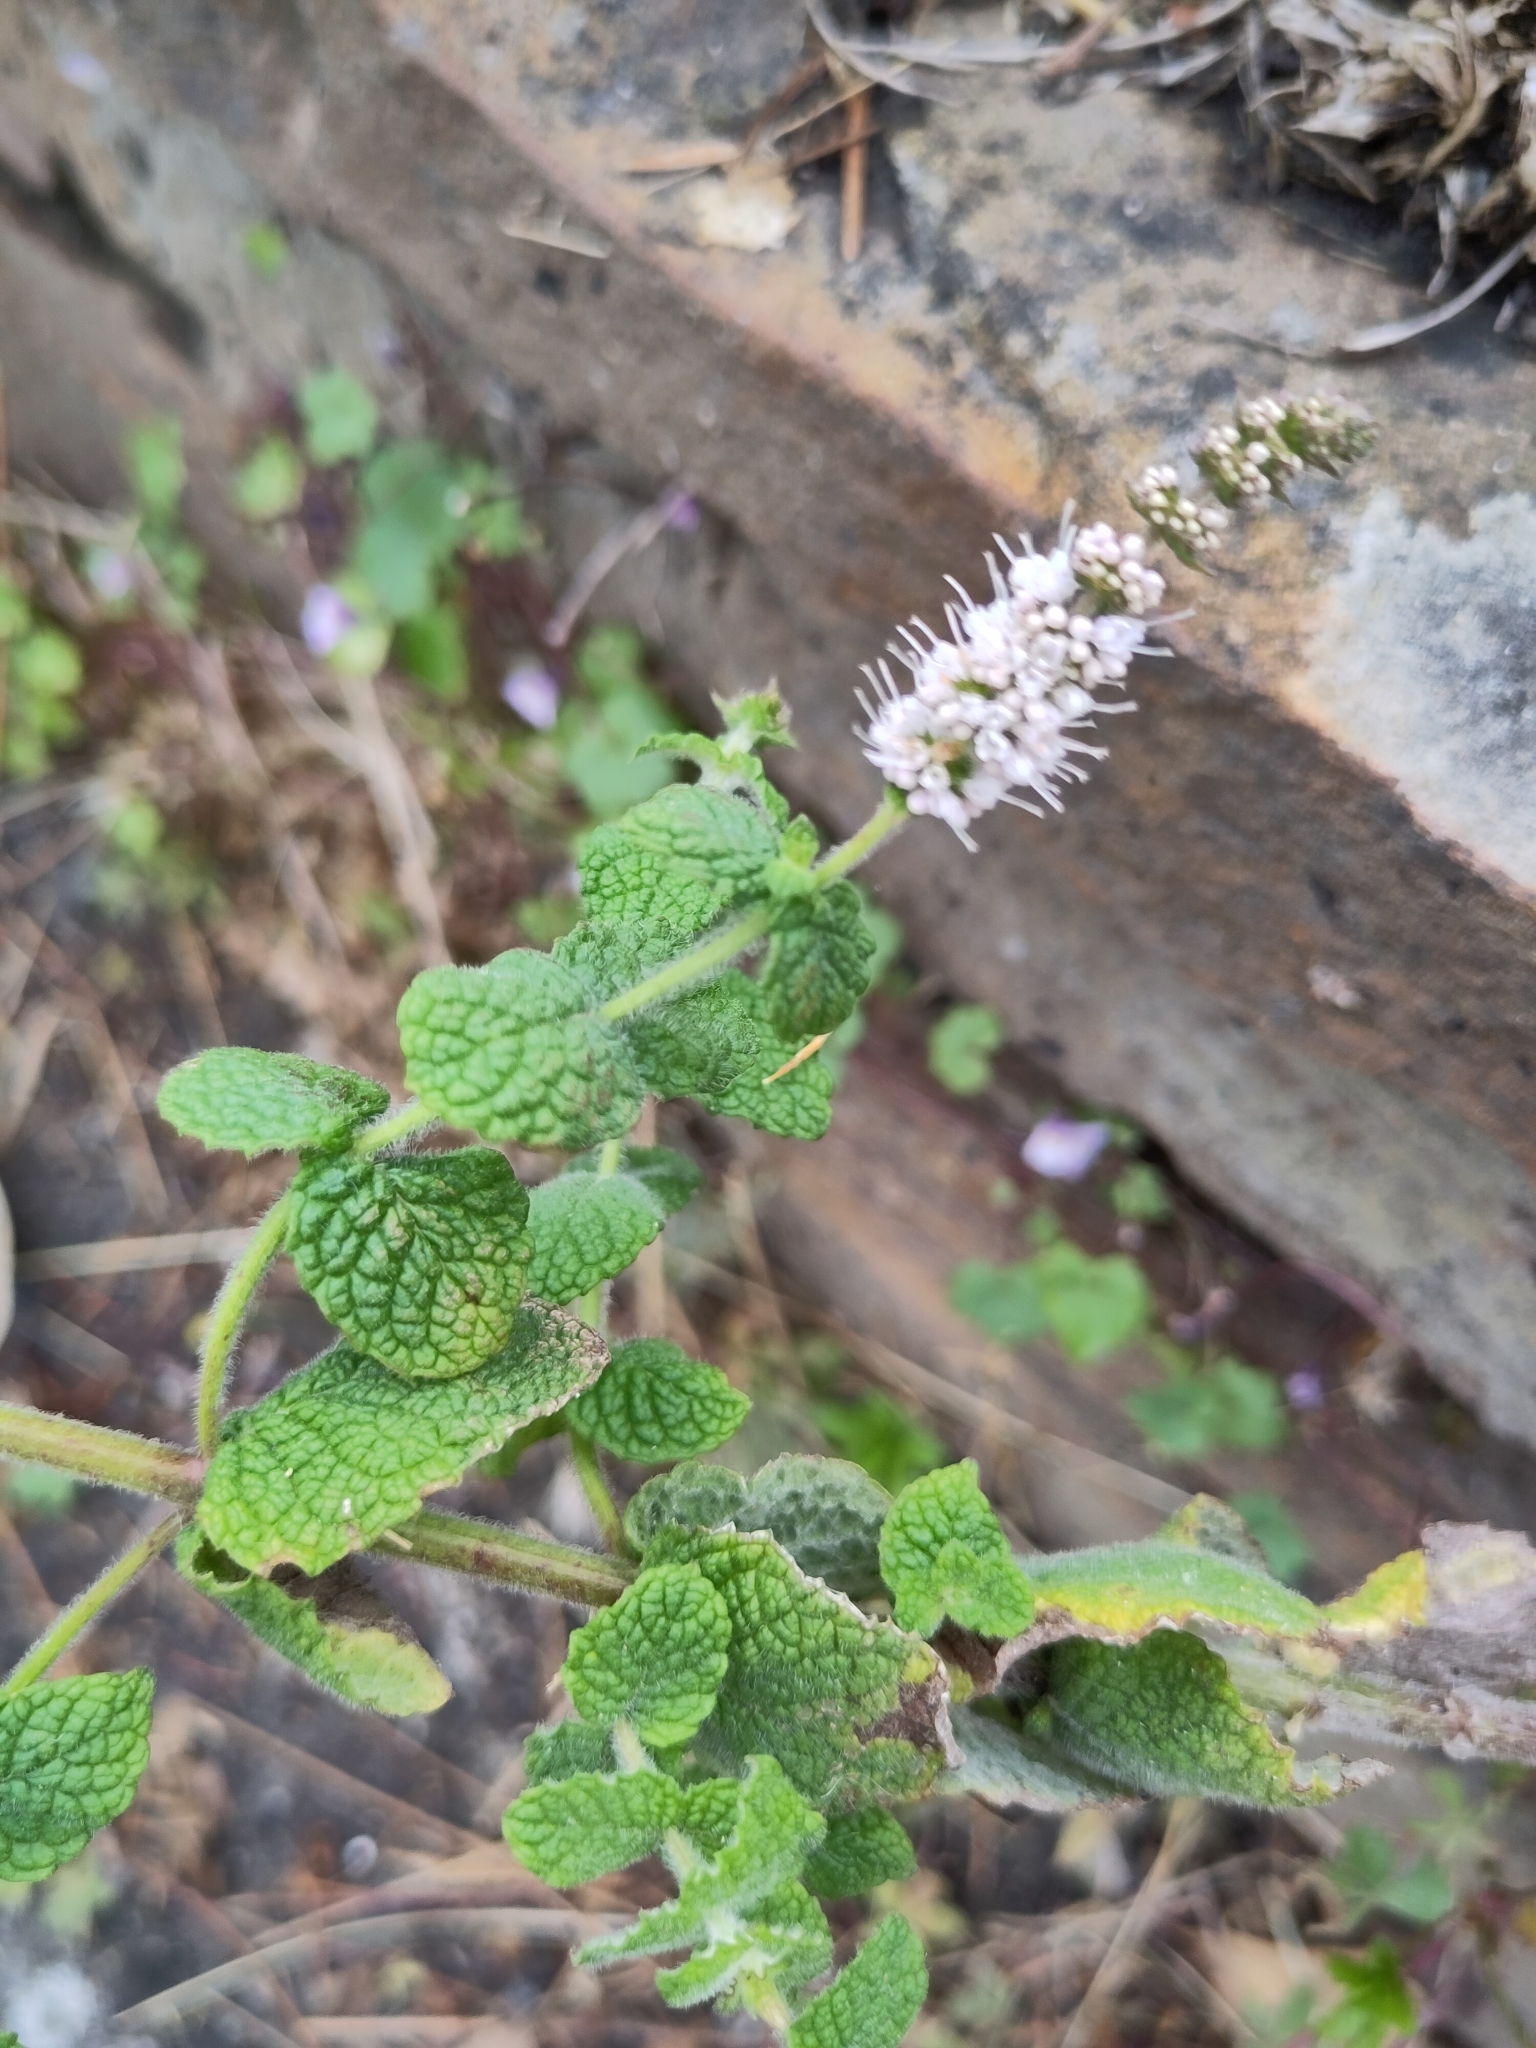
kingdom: Plantae
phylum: Tracheophyta
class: Magnoliopsida
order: Lamiales
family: Lamiaceae
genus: Mentha
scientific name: Mentha suaveolens
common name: Apple mint
